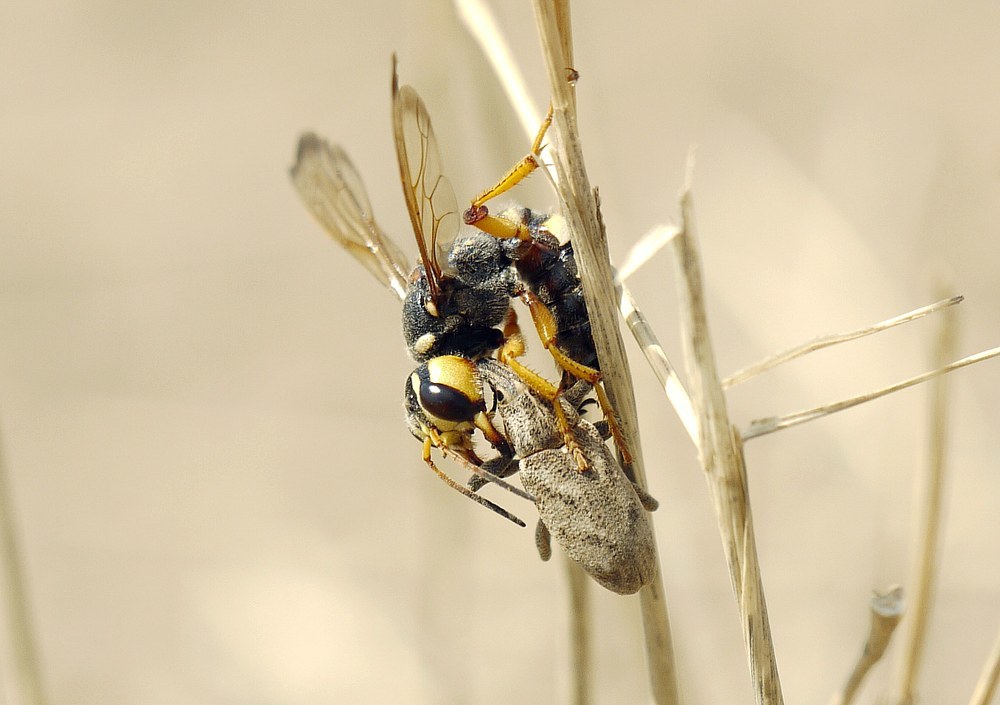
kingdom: Animalia
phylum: Arthropoda
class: Insecta
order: Coleoptera
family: Curculionidae
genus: Cleonis
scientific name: Cleonis pigra
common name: Large thistle weevil
